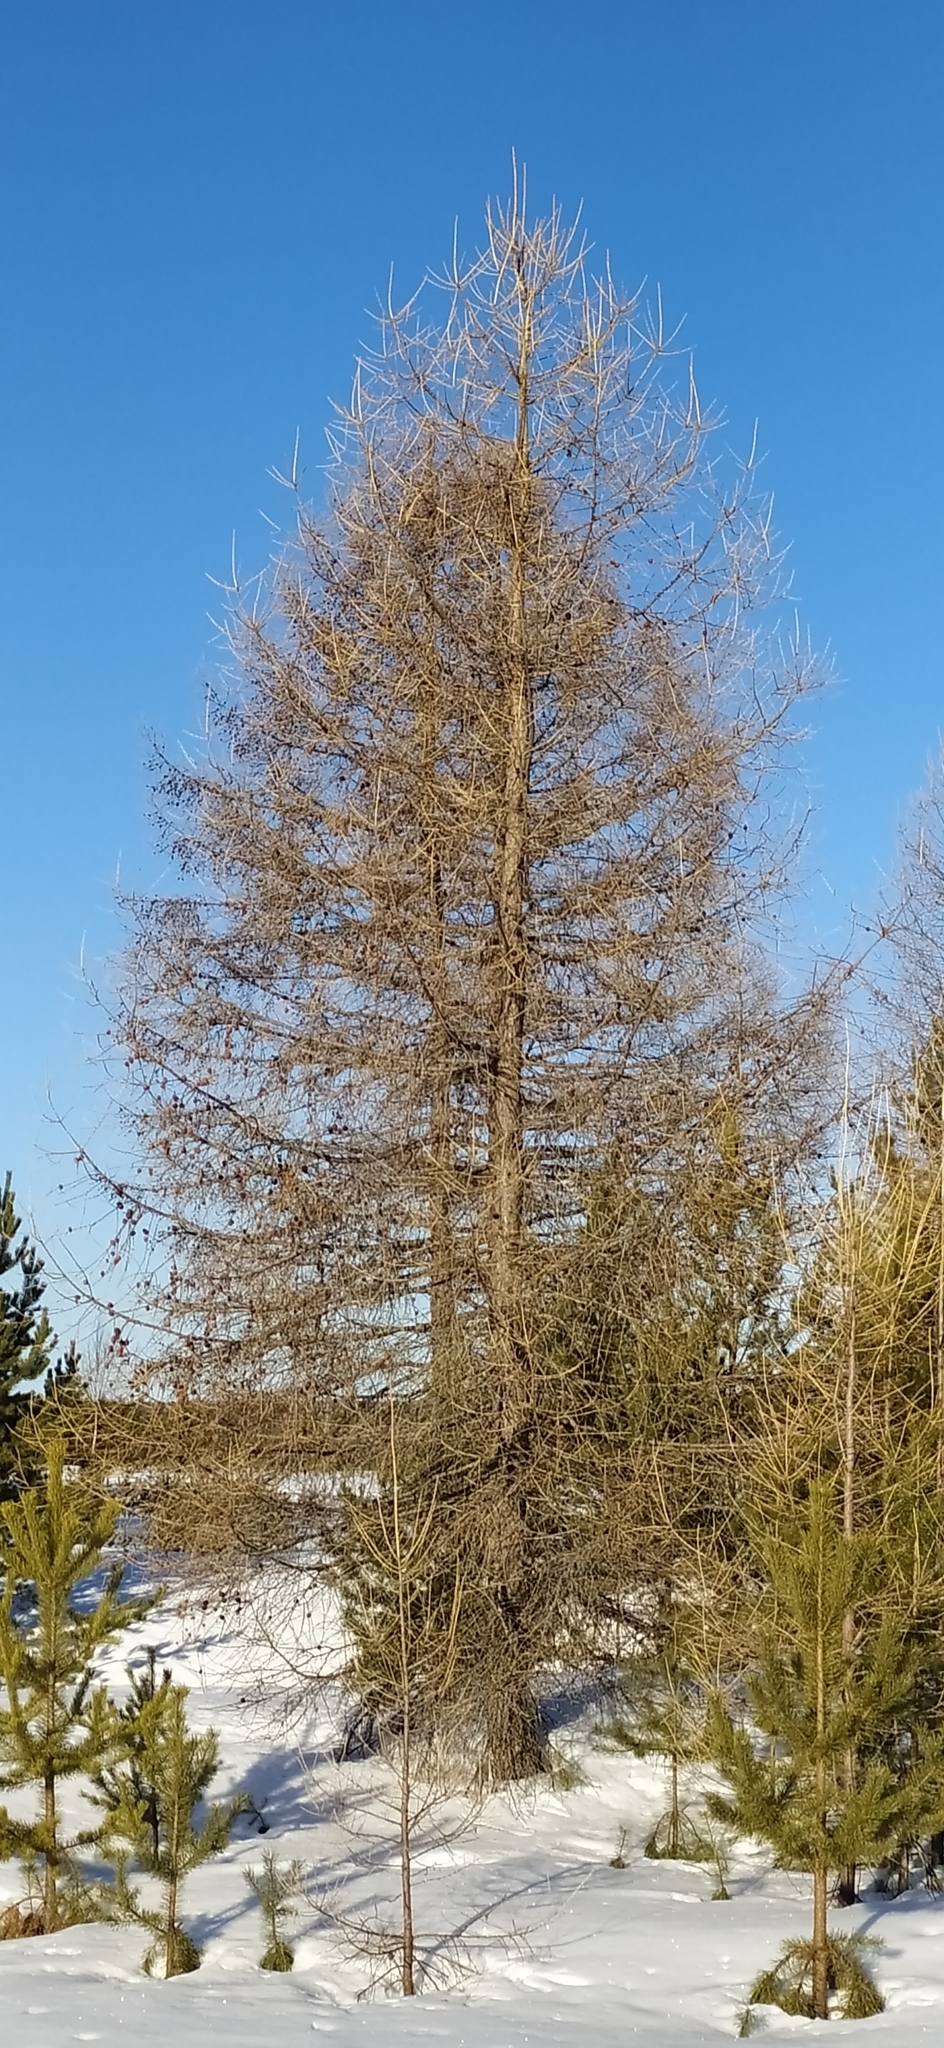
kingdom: Plantae
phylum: Tracheophyta
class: Pinopsida
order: Pinales
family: Pinaceae
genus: Larix
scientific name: Larix sibirica
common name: Siberian larch
